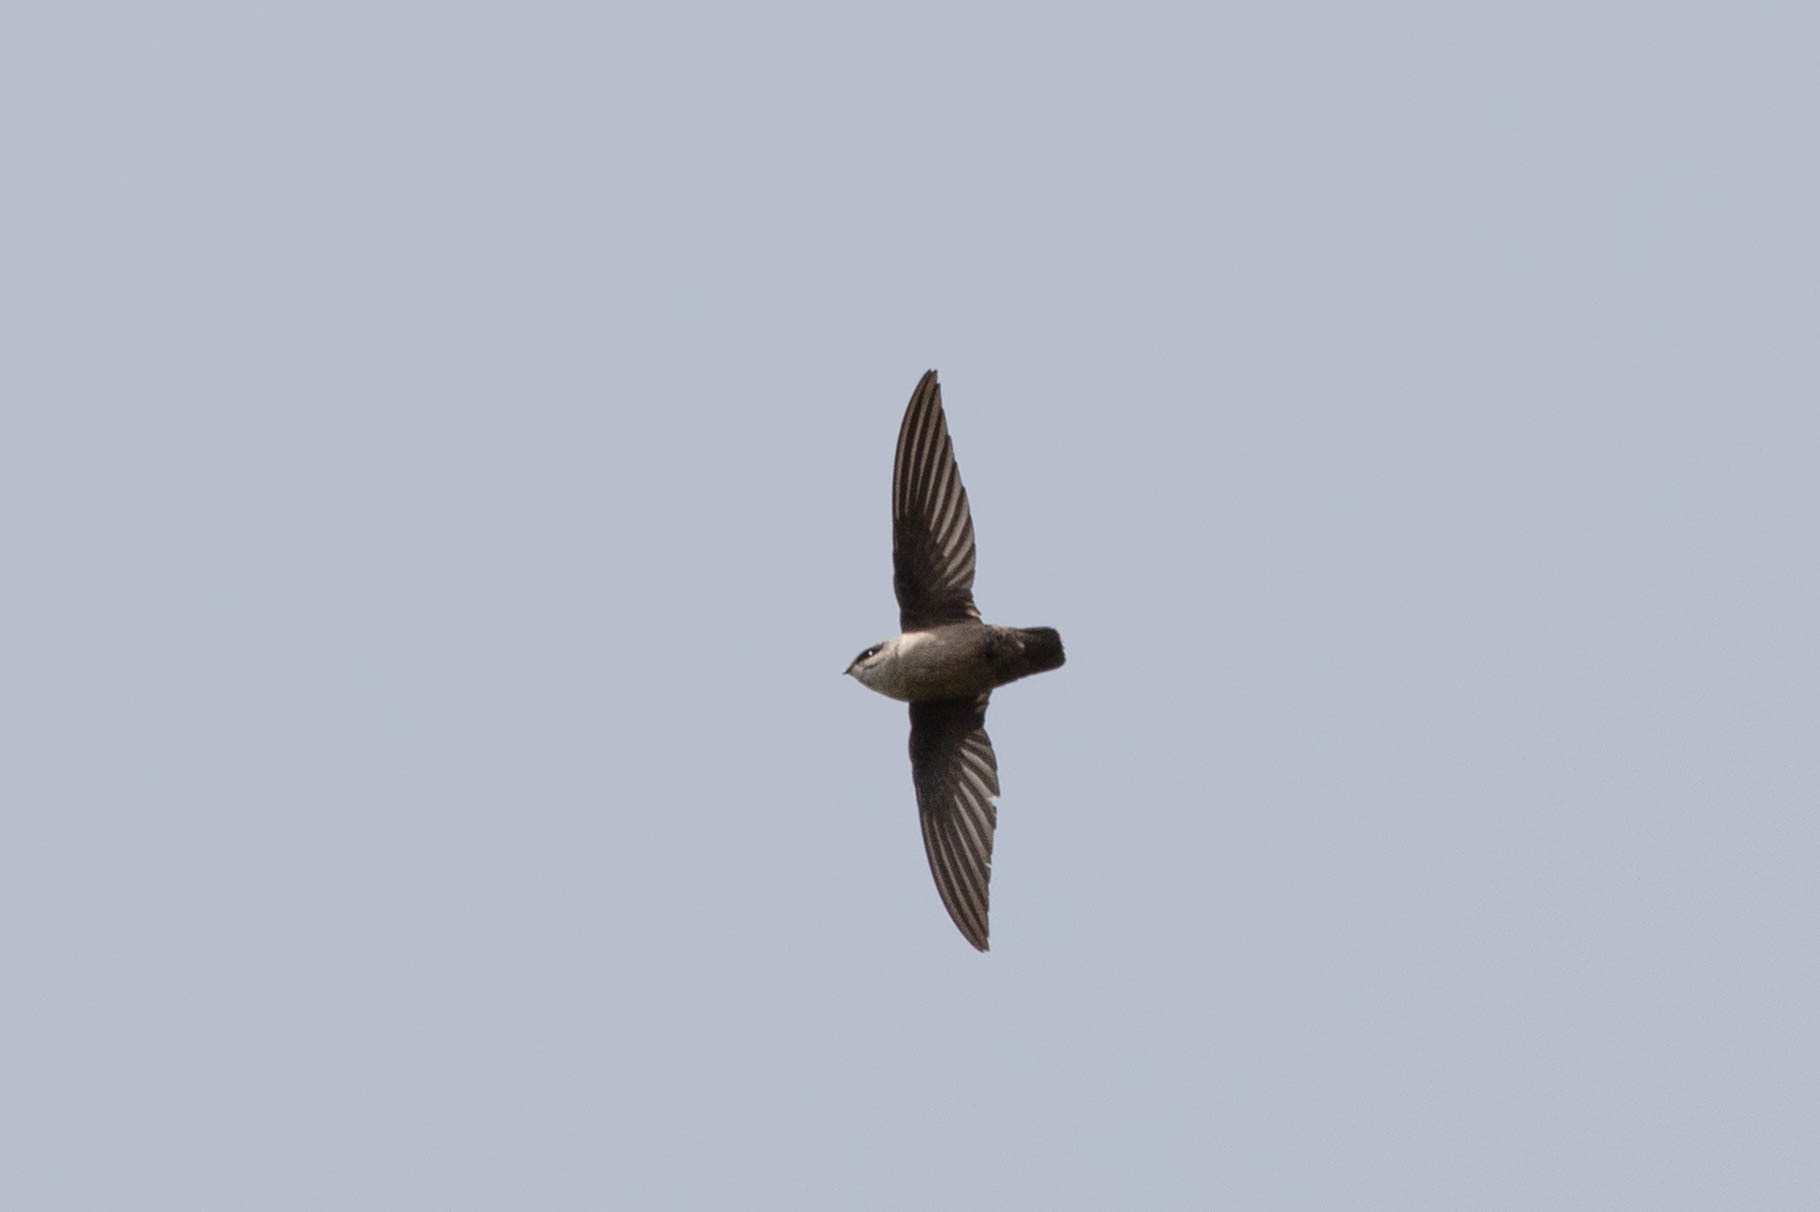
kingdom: Animalia
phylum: Chordata
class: Aves
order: Apodiformes
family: Apodidae
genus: Chaetura
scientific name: Chaetura vauxi
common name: Vaux's swift
